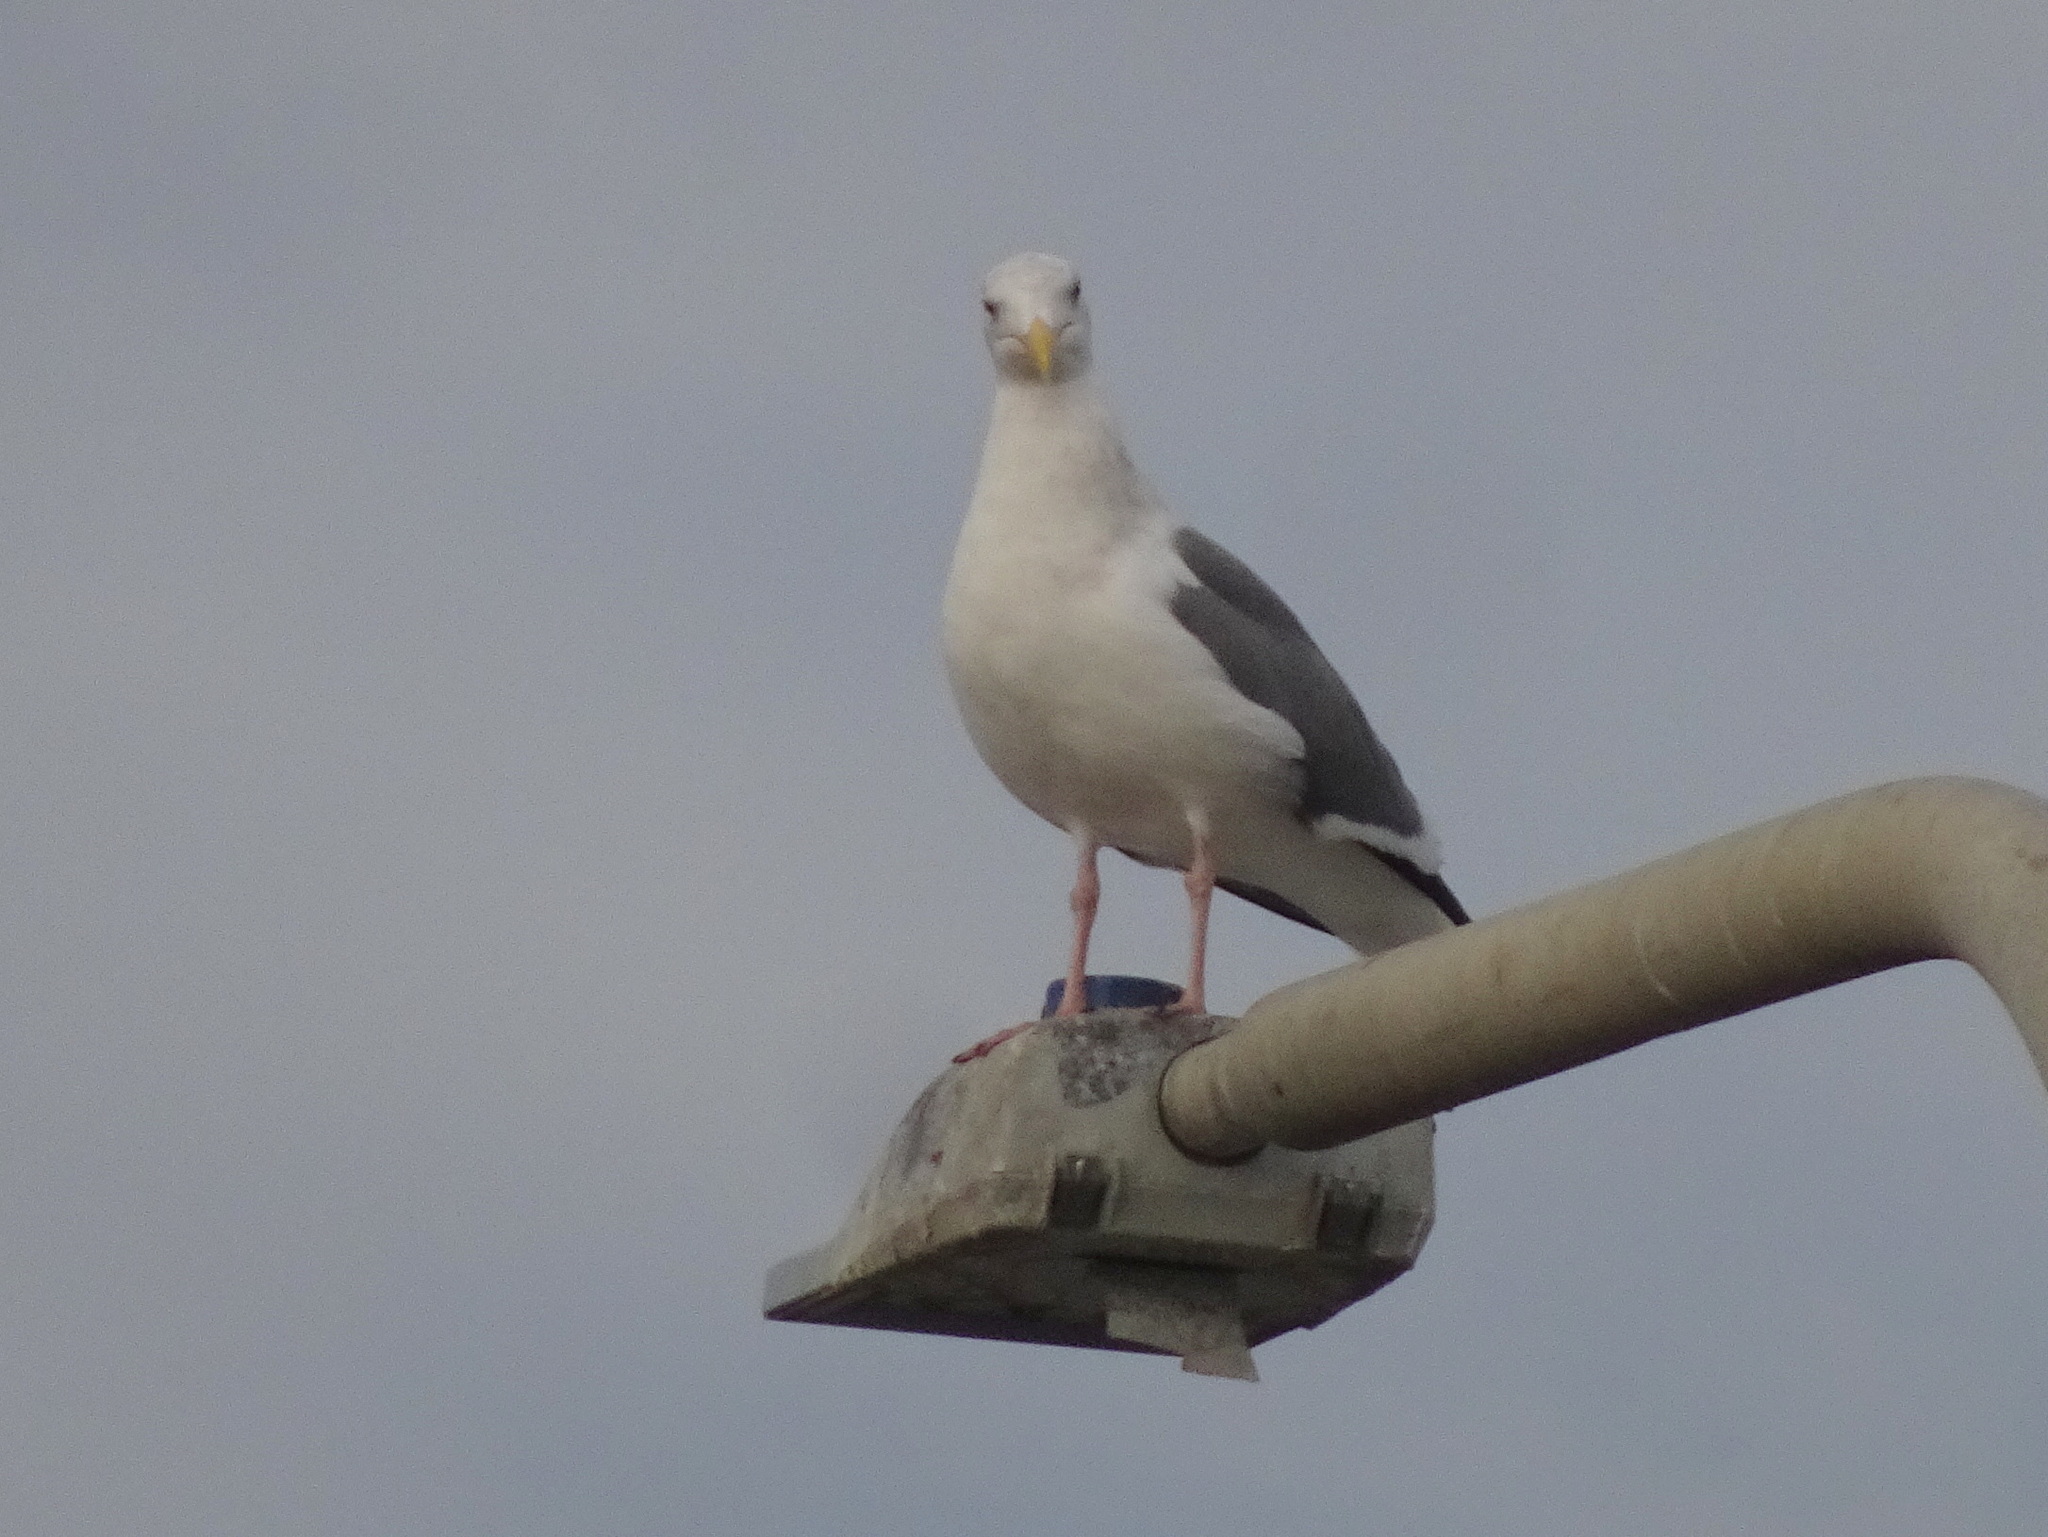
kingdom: Animalia
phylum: Chordata
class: Aves
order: Charadriiformes
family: Laridae
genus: Larus
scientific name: Larus occidentalis
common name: Western gull
